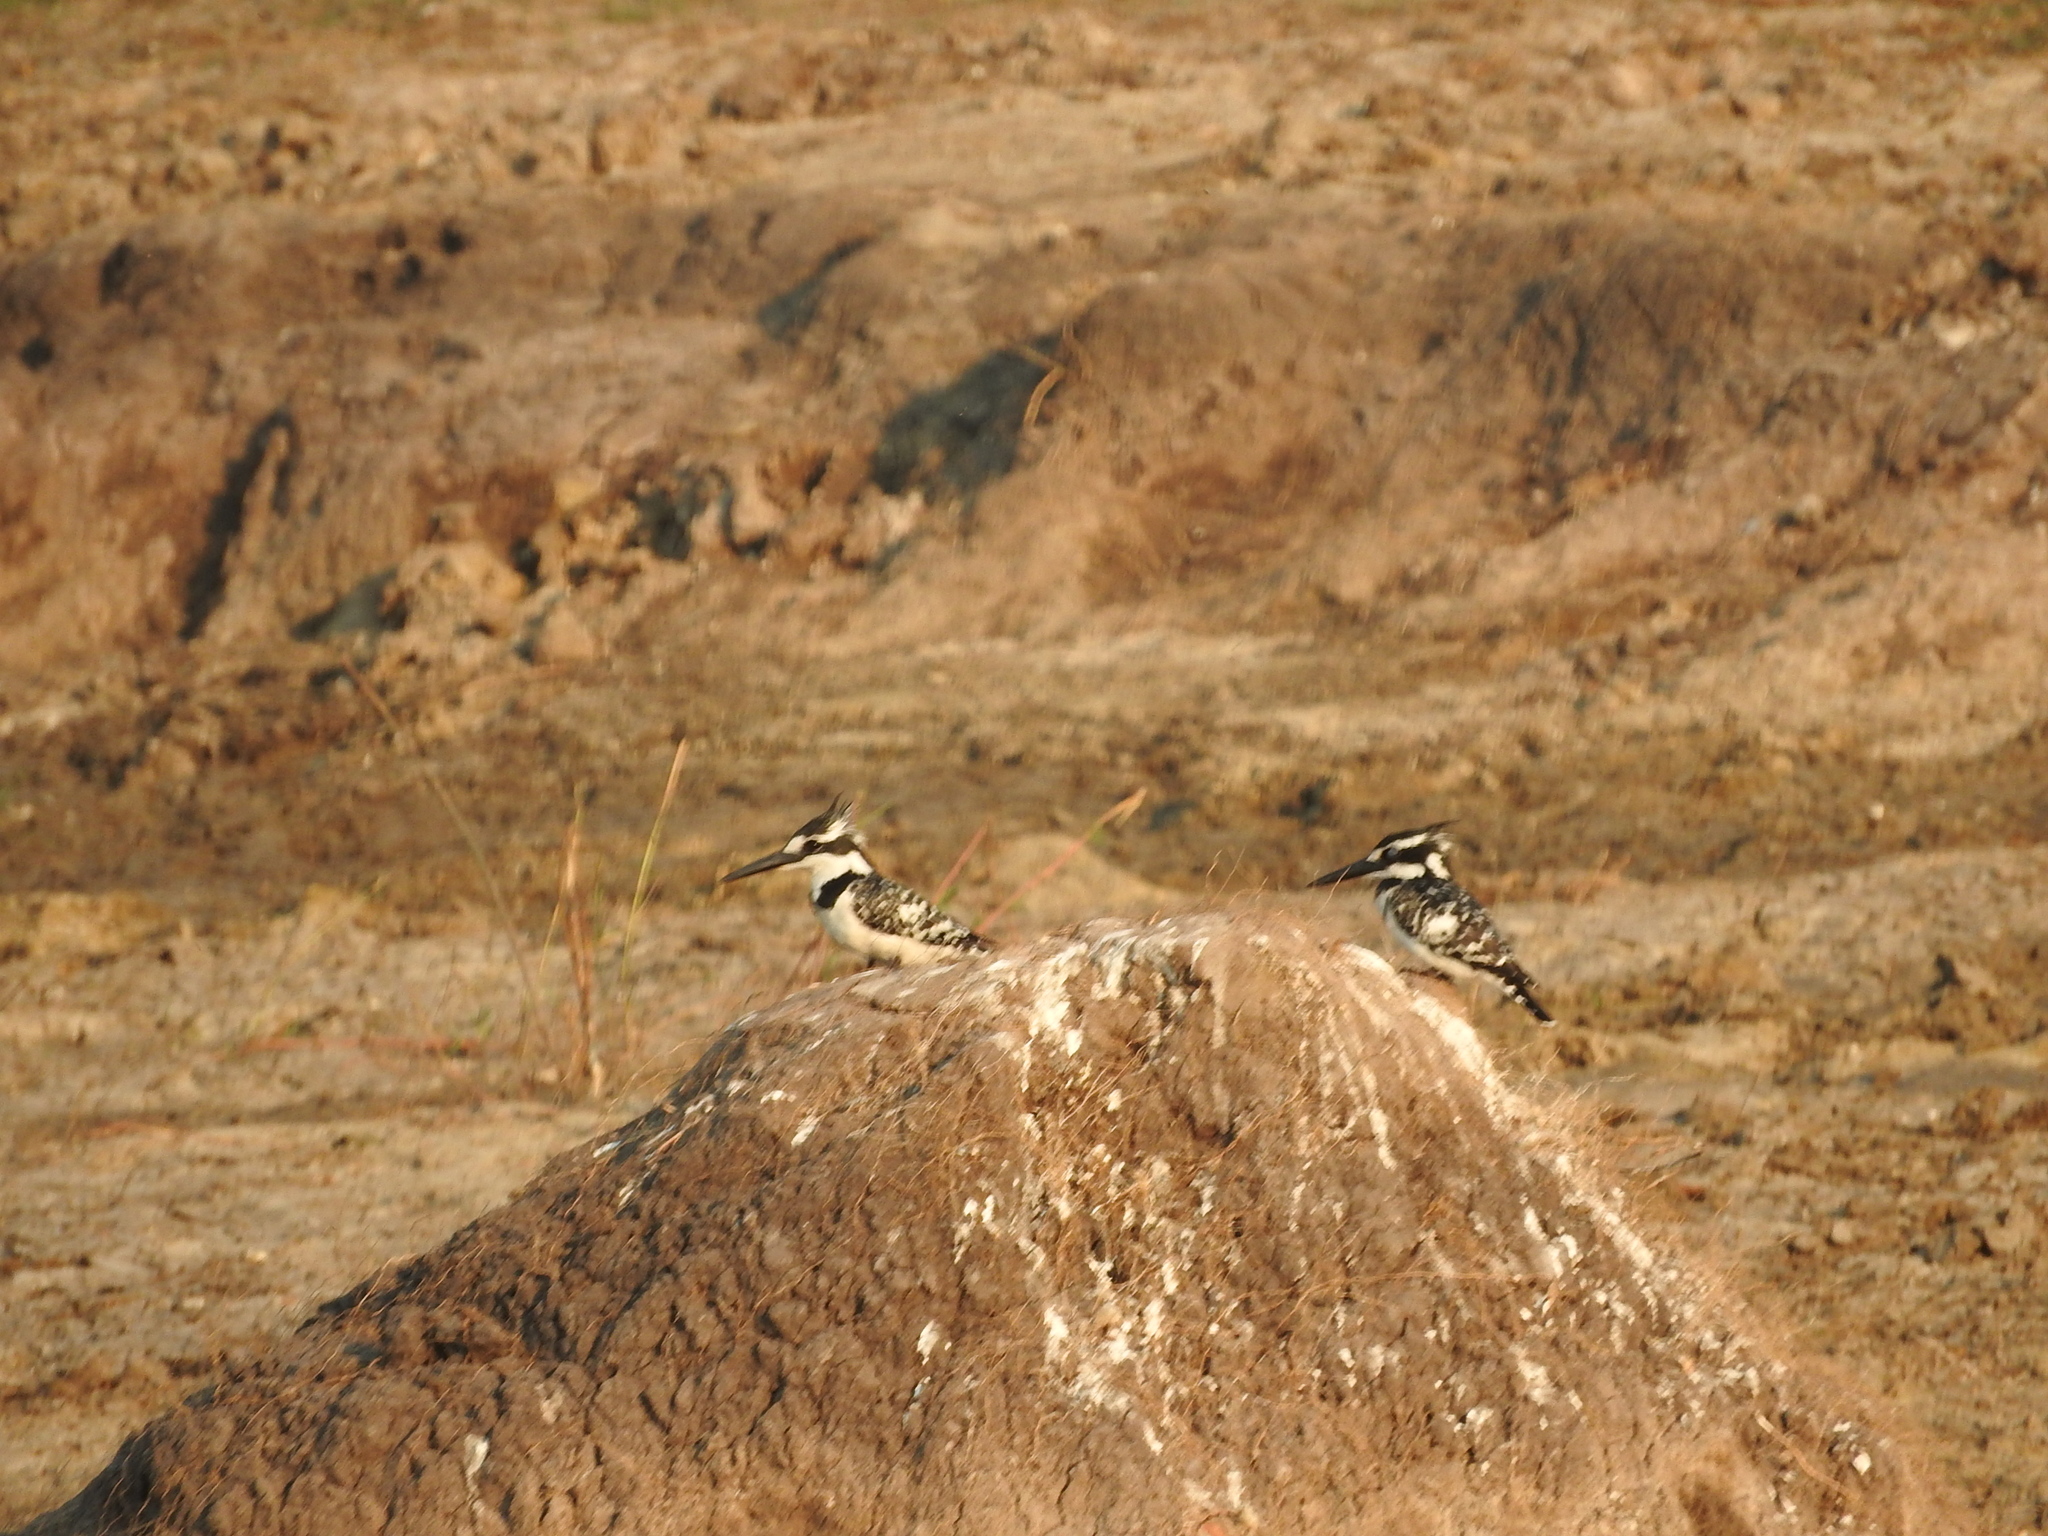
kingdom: Animalia
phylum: Chordata
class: Aves
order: Coraciiformes
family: Alcedinidae
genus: Ceryle
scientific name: Ceryle rudis
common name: Pied kingfisher
